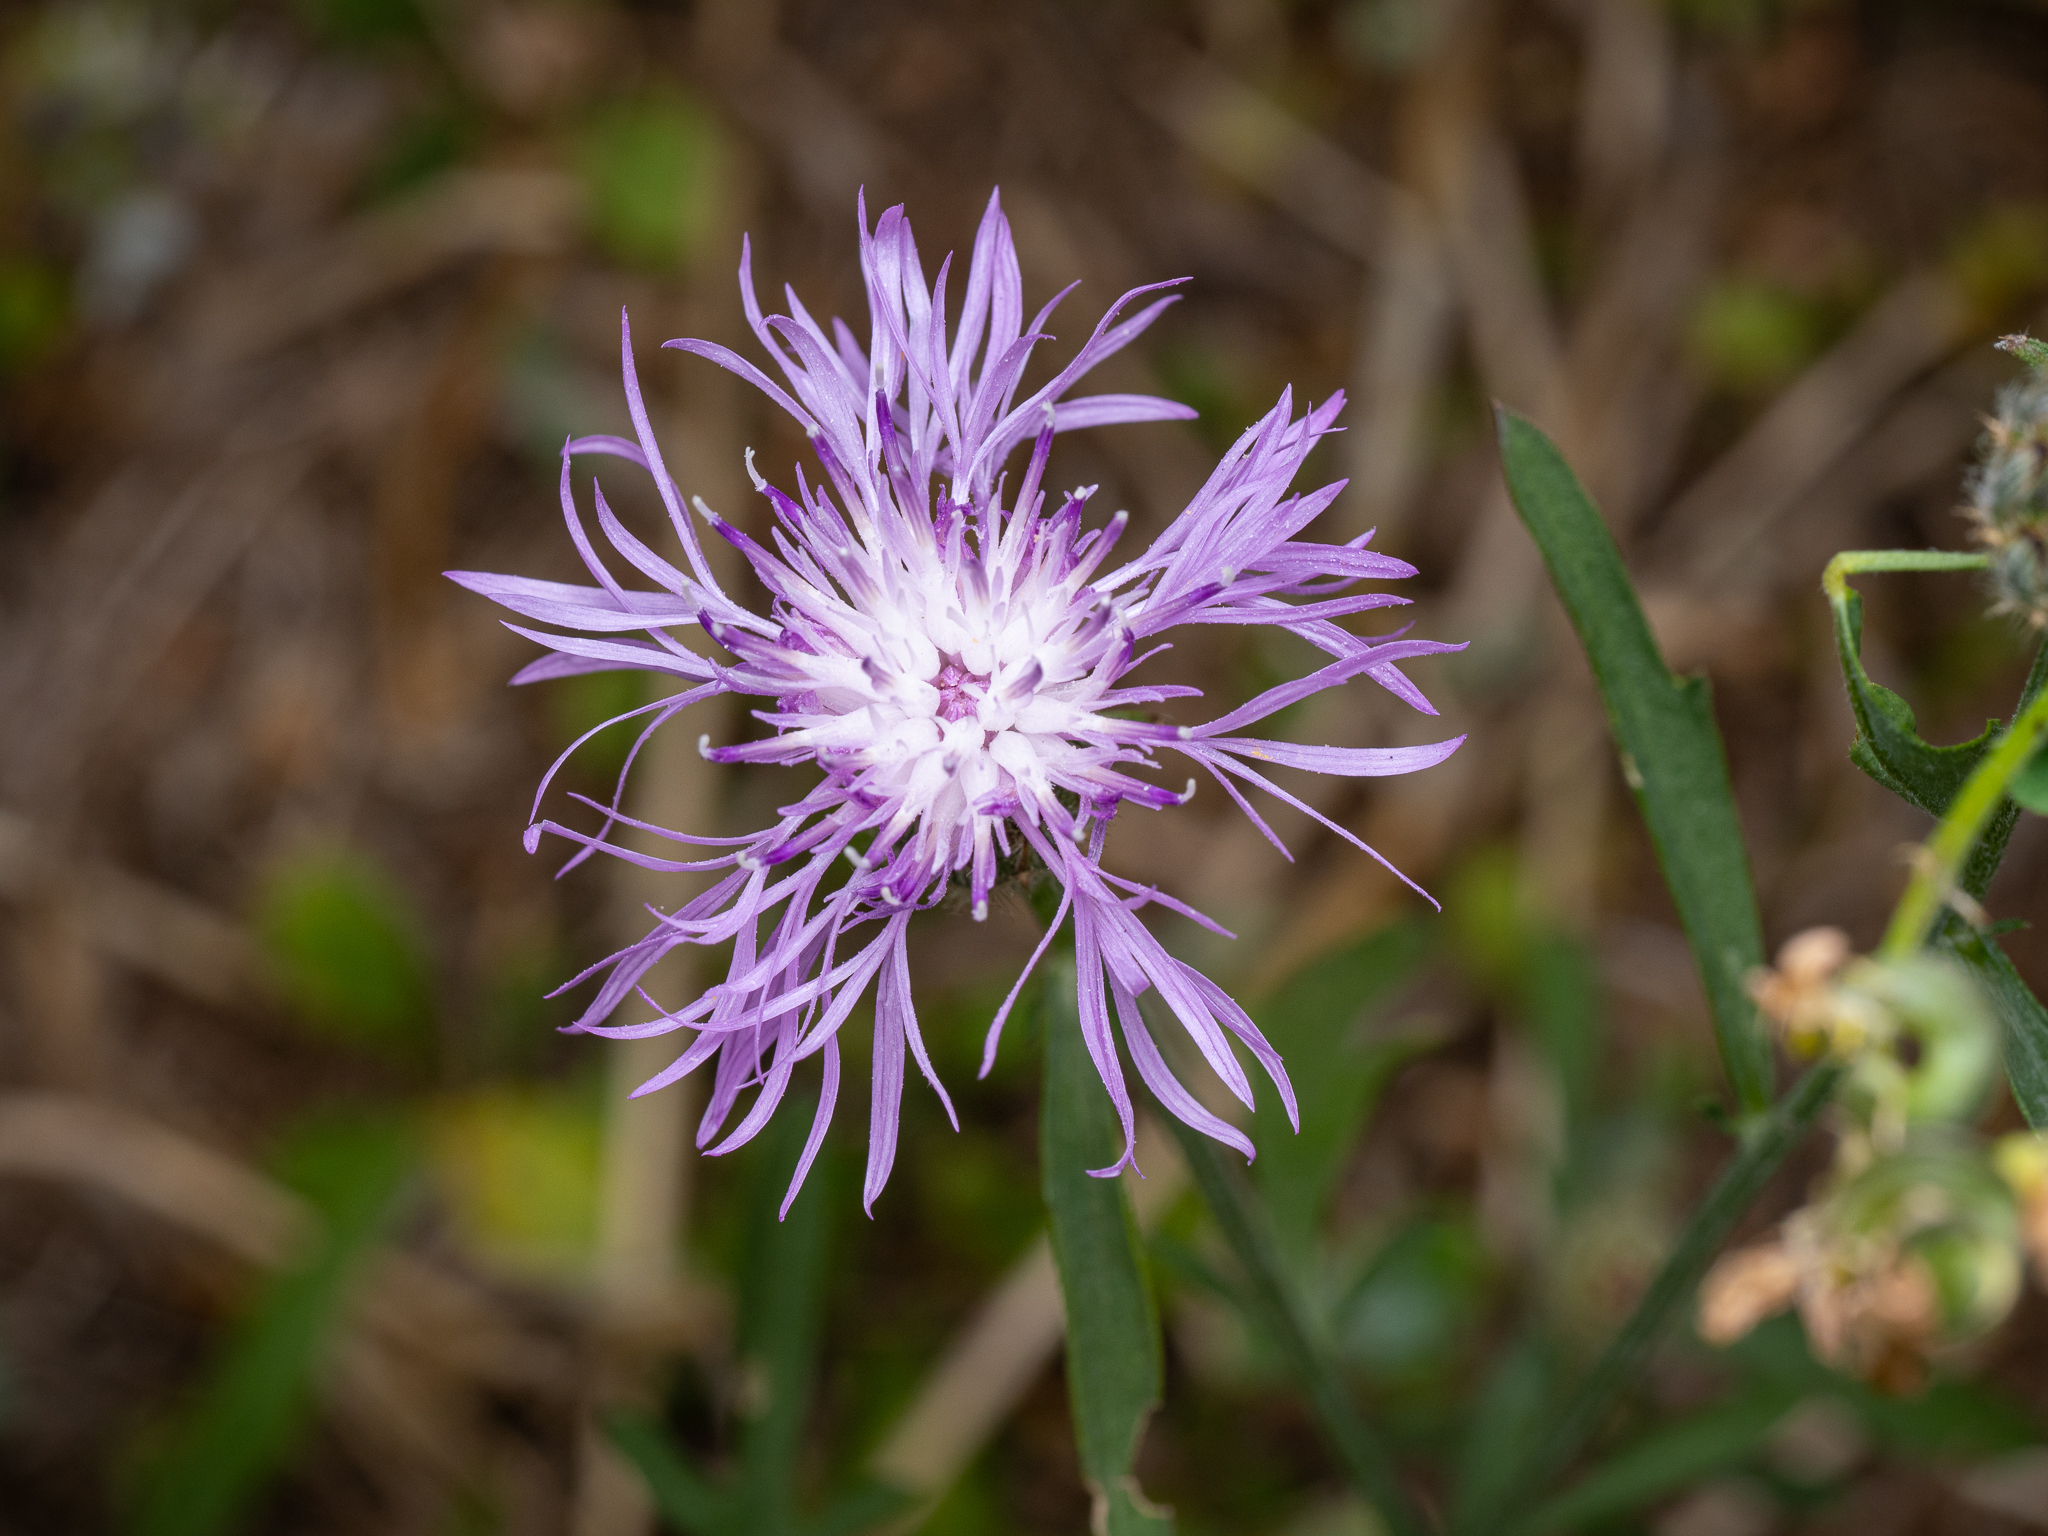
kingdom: Plantae
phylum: Tracheophyta
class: Magnoliopsida
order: Asterales
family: Asteraceae
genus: Centaurea
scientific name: Centaurea stoebe
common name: Spotted knapweed
